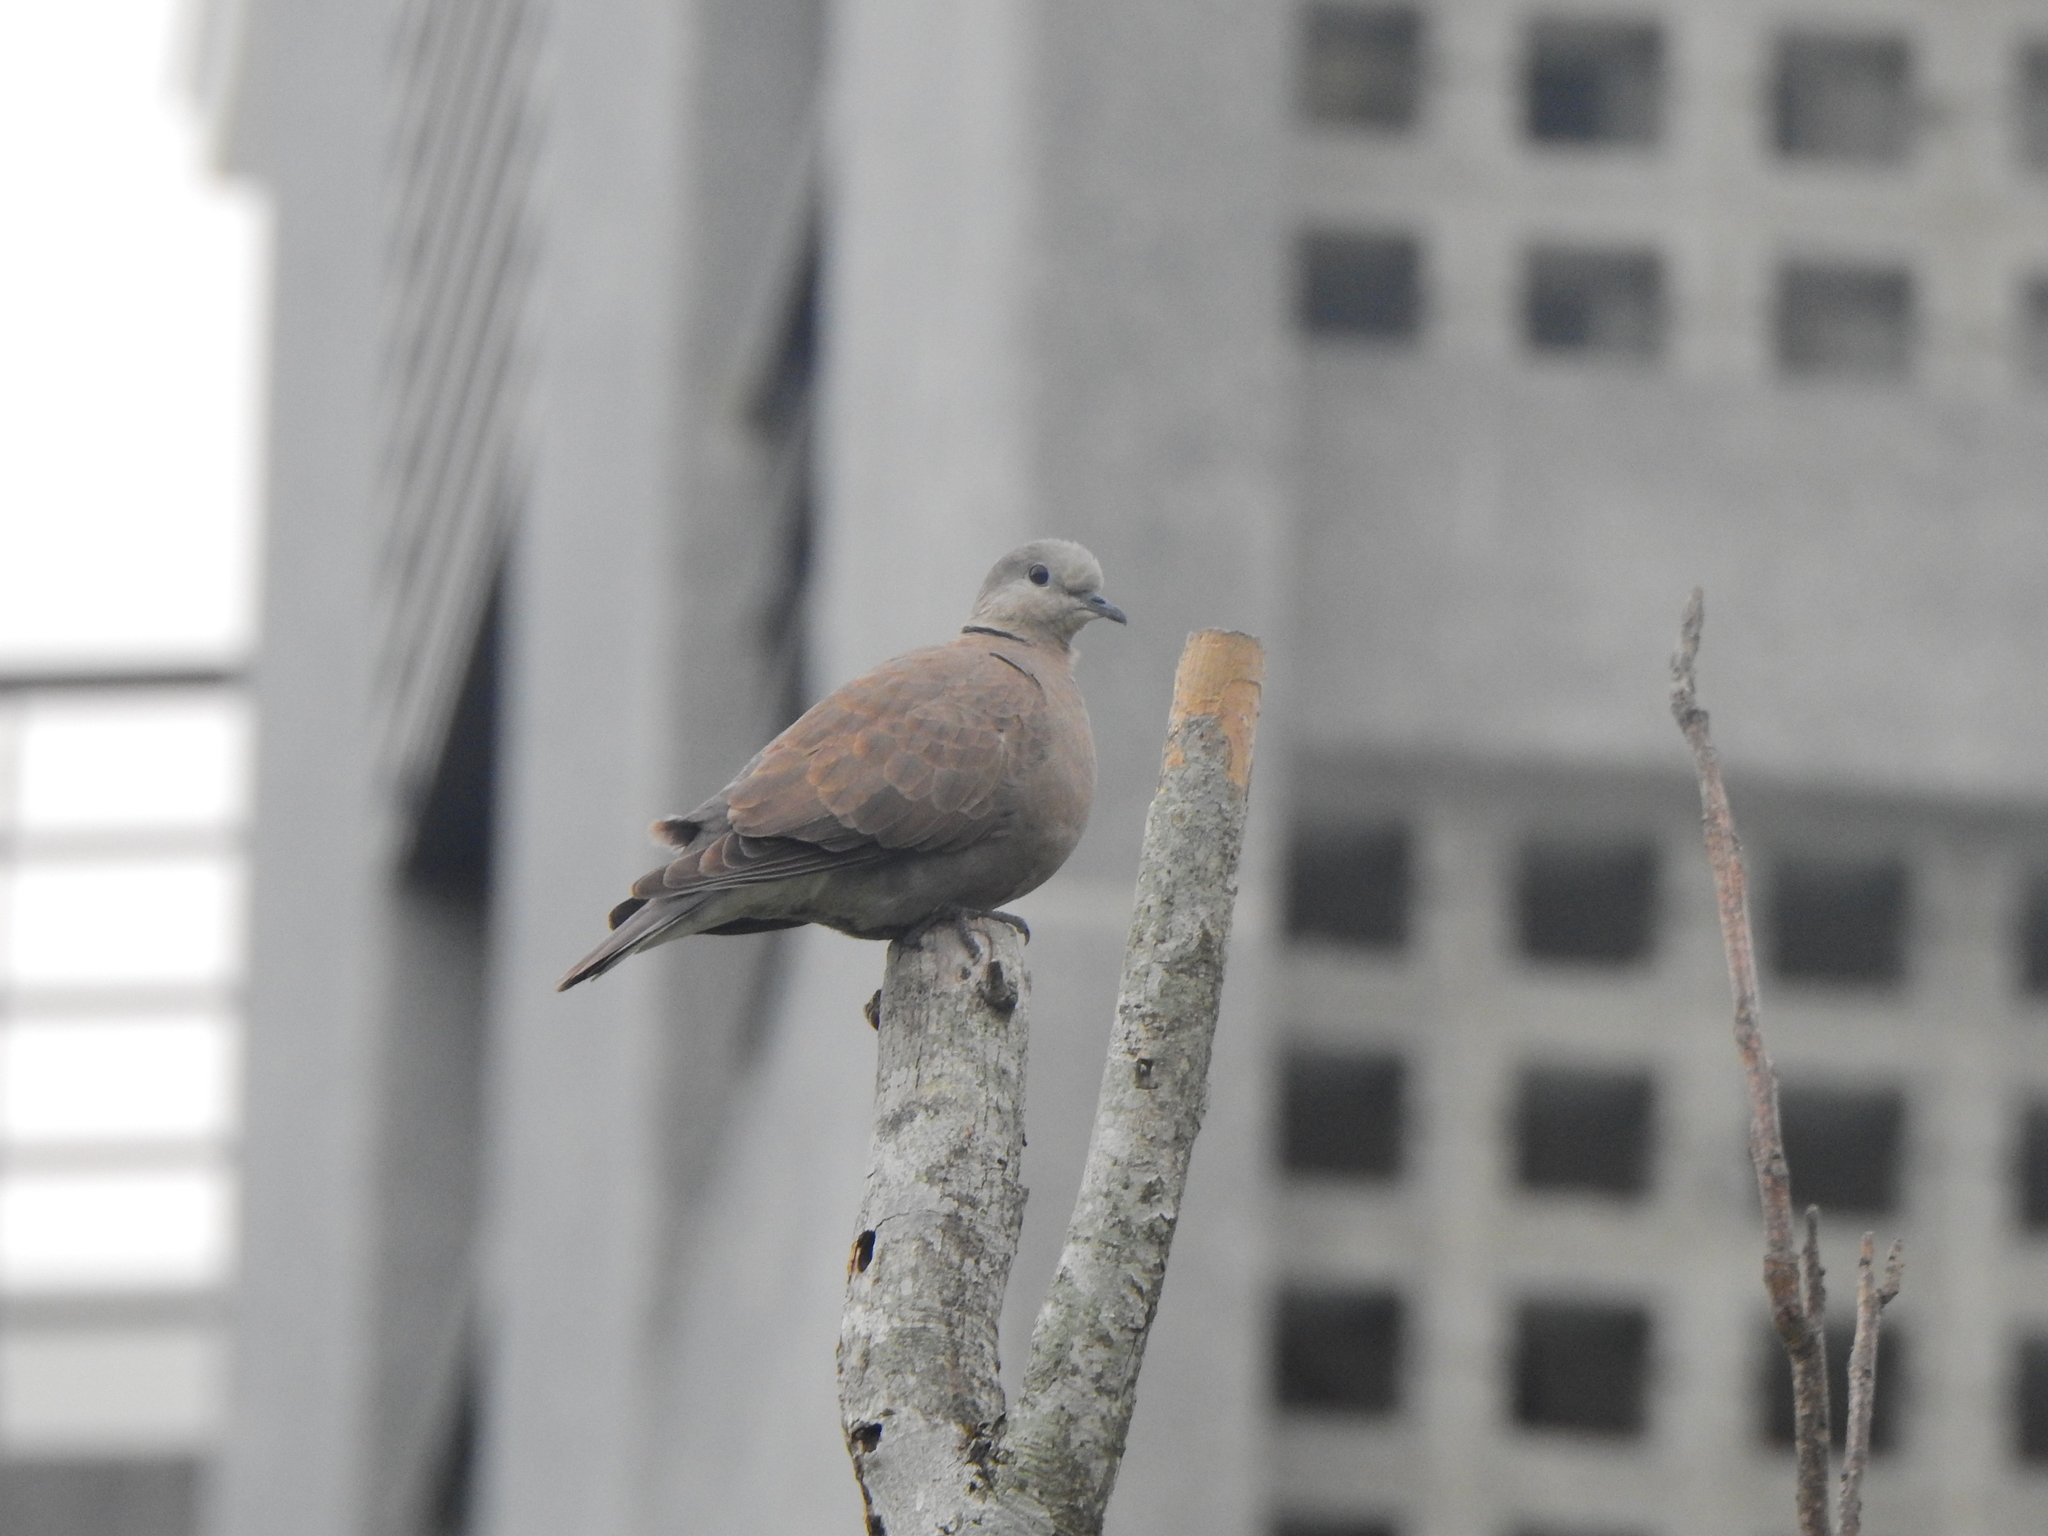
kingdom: Animalia
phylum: Chordata
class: Aves
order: Columbiformes
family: Columbidae
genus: Streptopelia
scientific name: Streptopelia tranquebarica
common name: Red turtle dove
